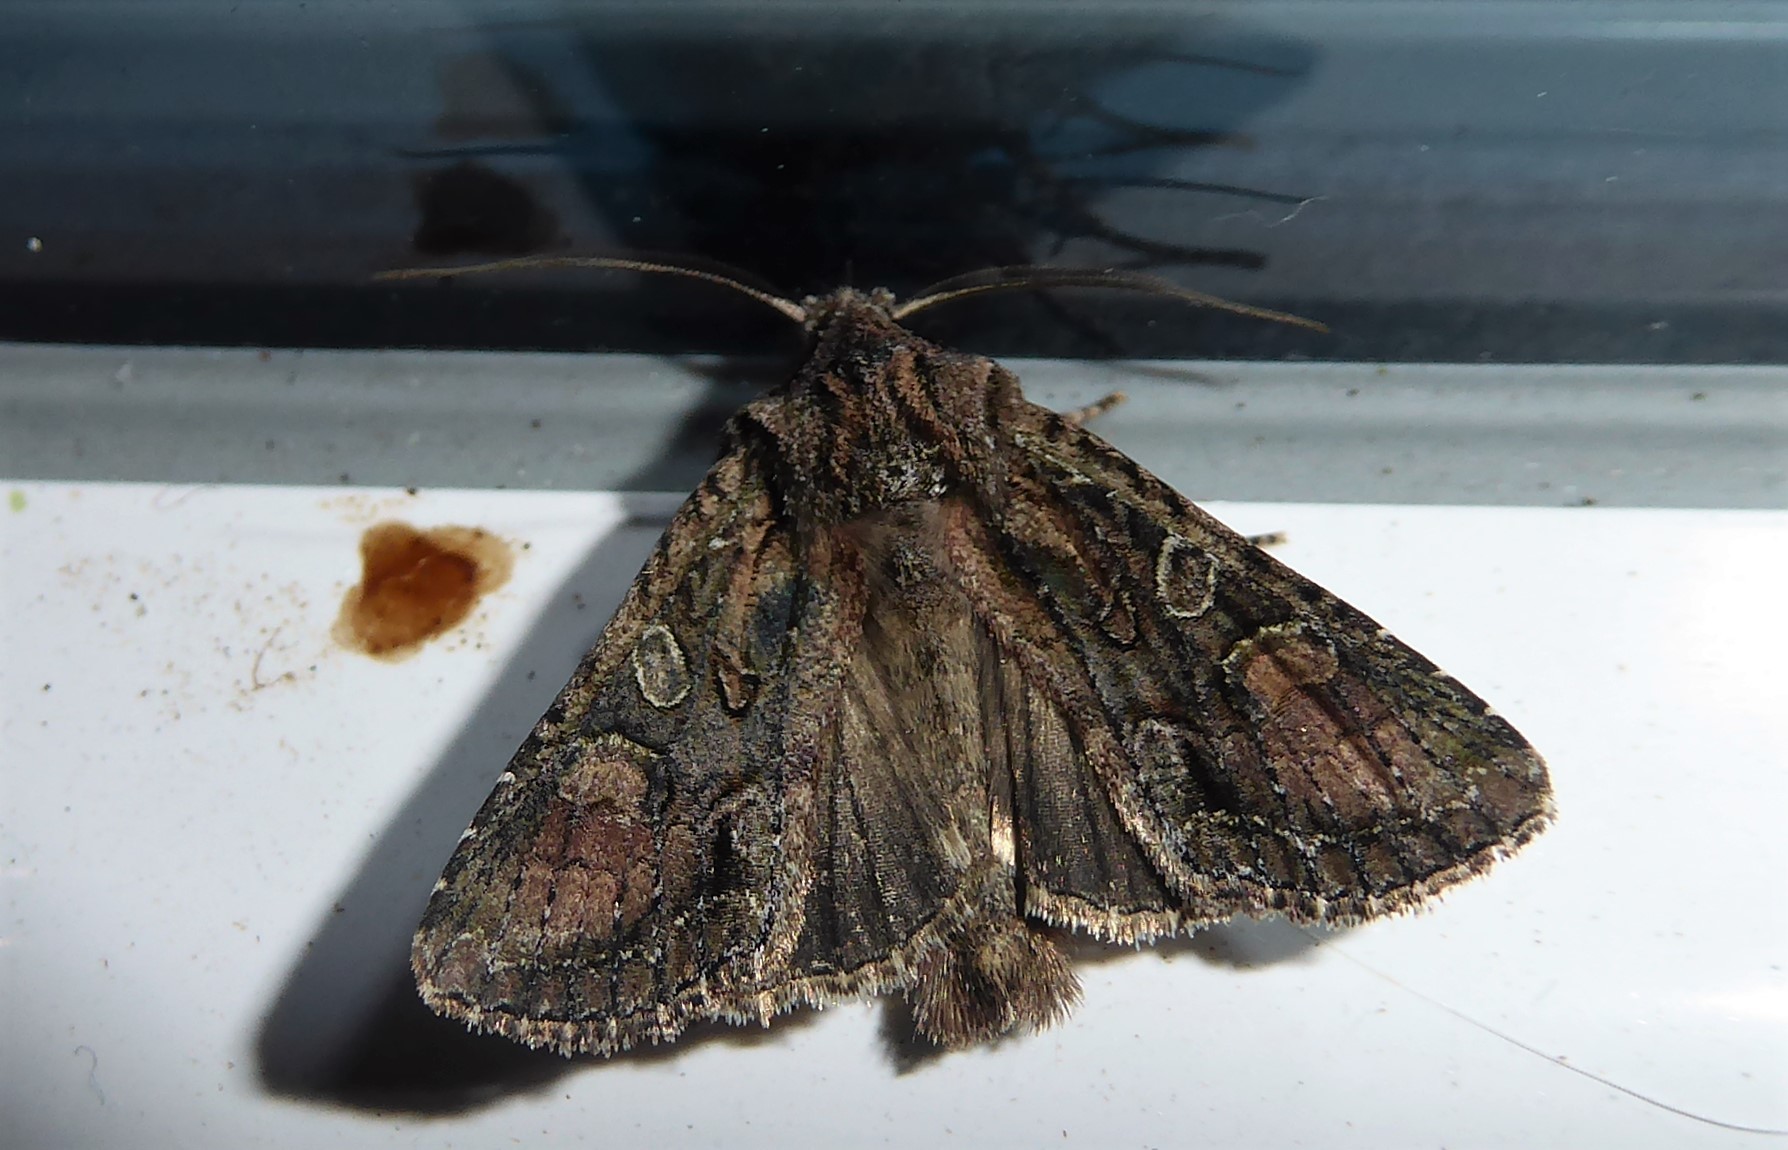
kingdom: Animalia
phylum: Arthropoda
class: Insecta
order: Lepidoptera
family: Noctuidae
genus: Ichneutica
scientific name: Ichneutica mutans
